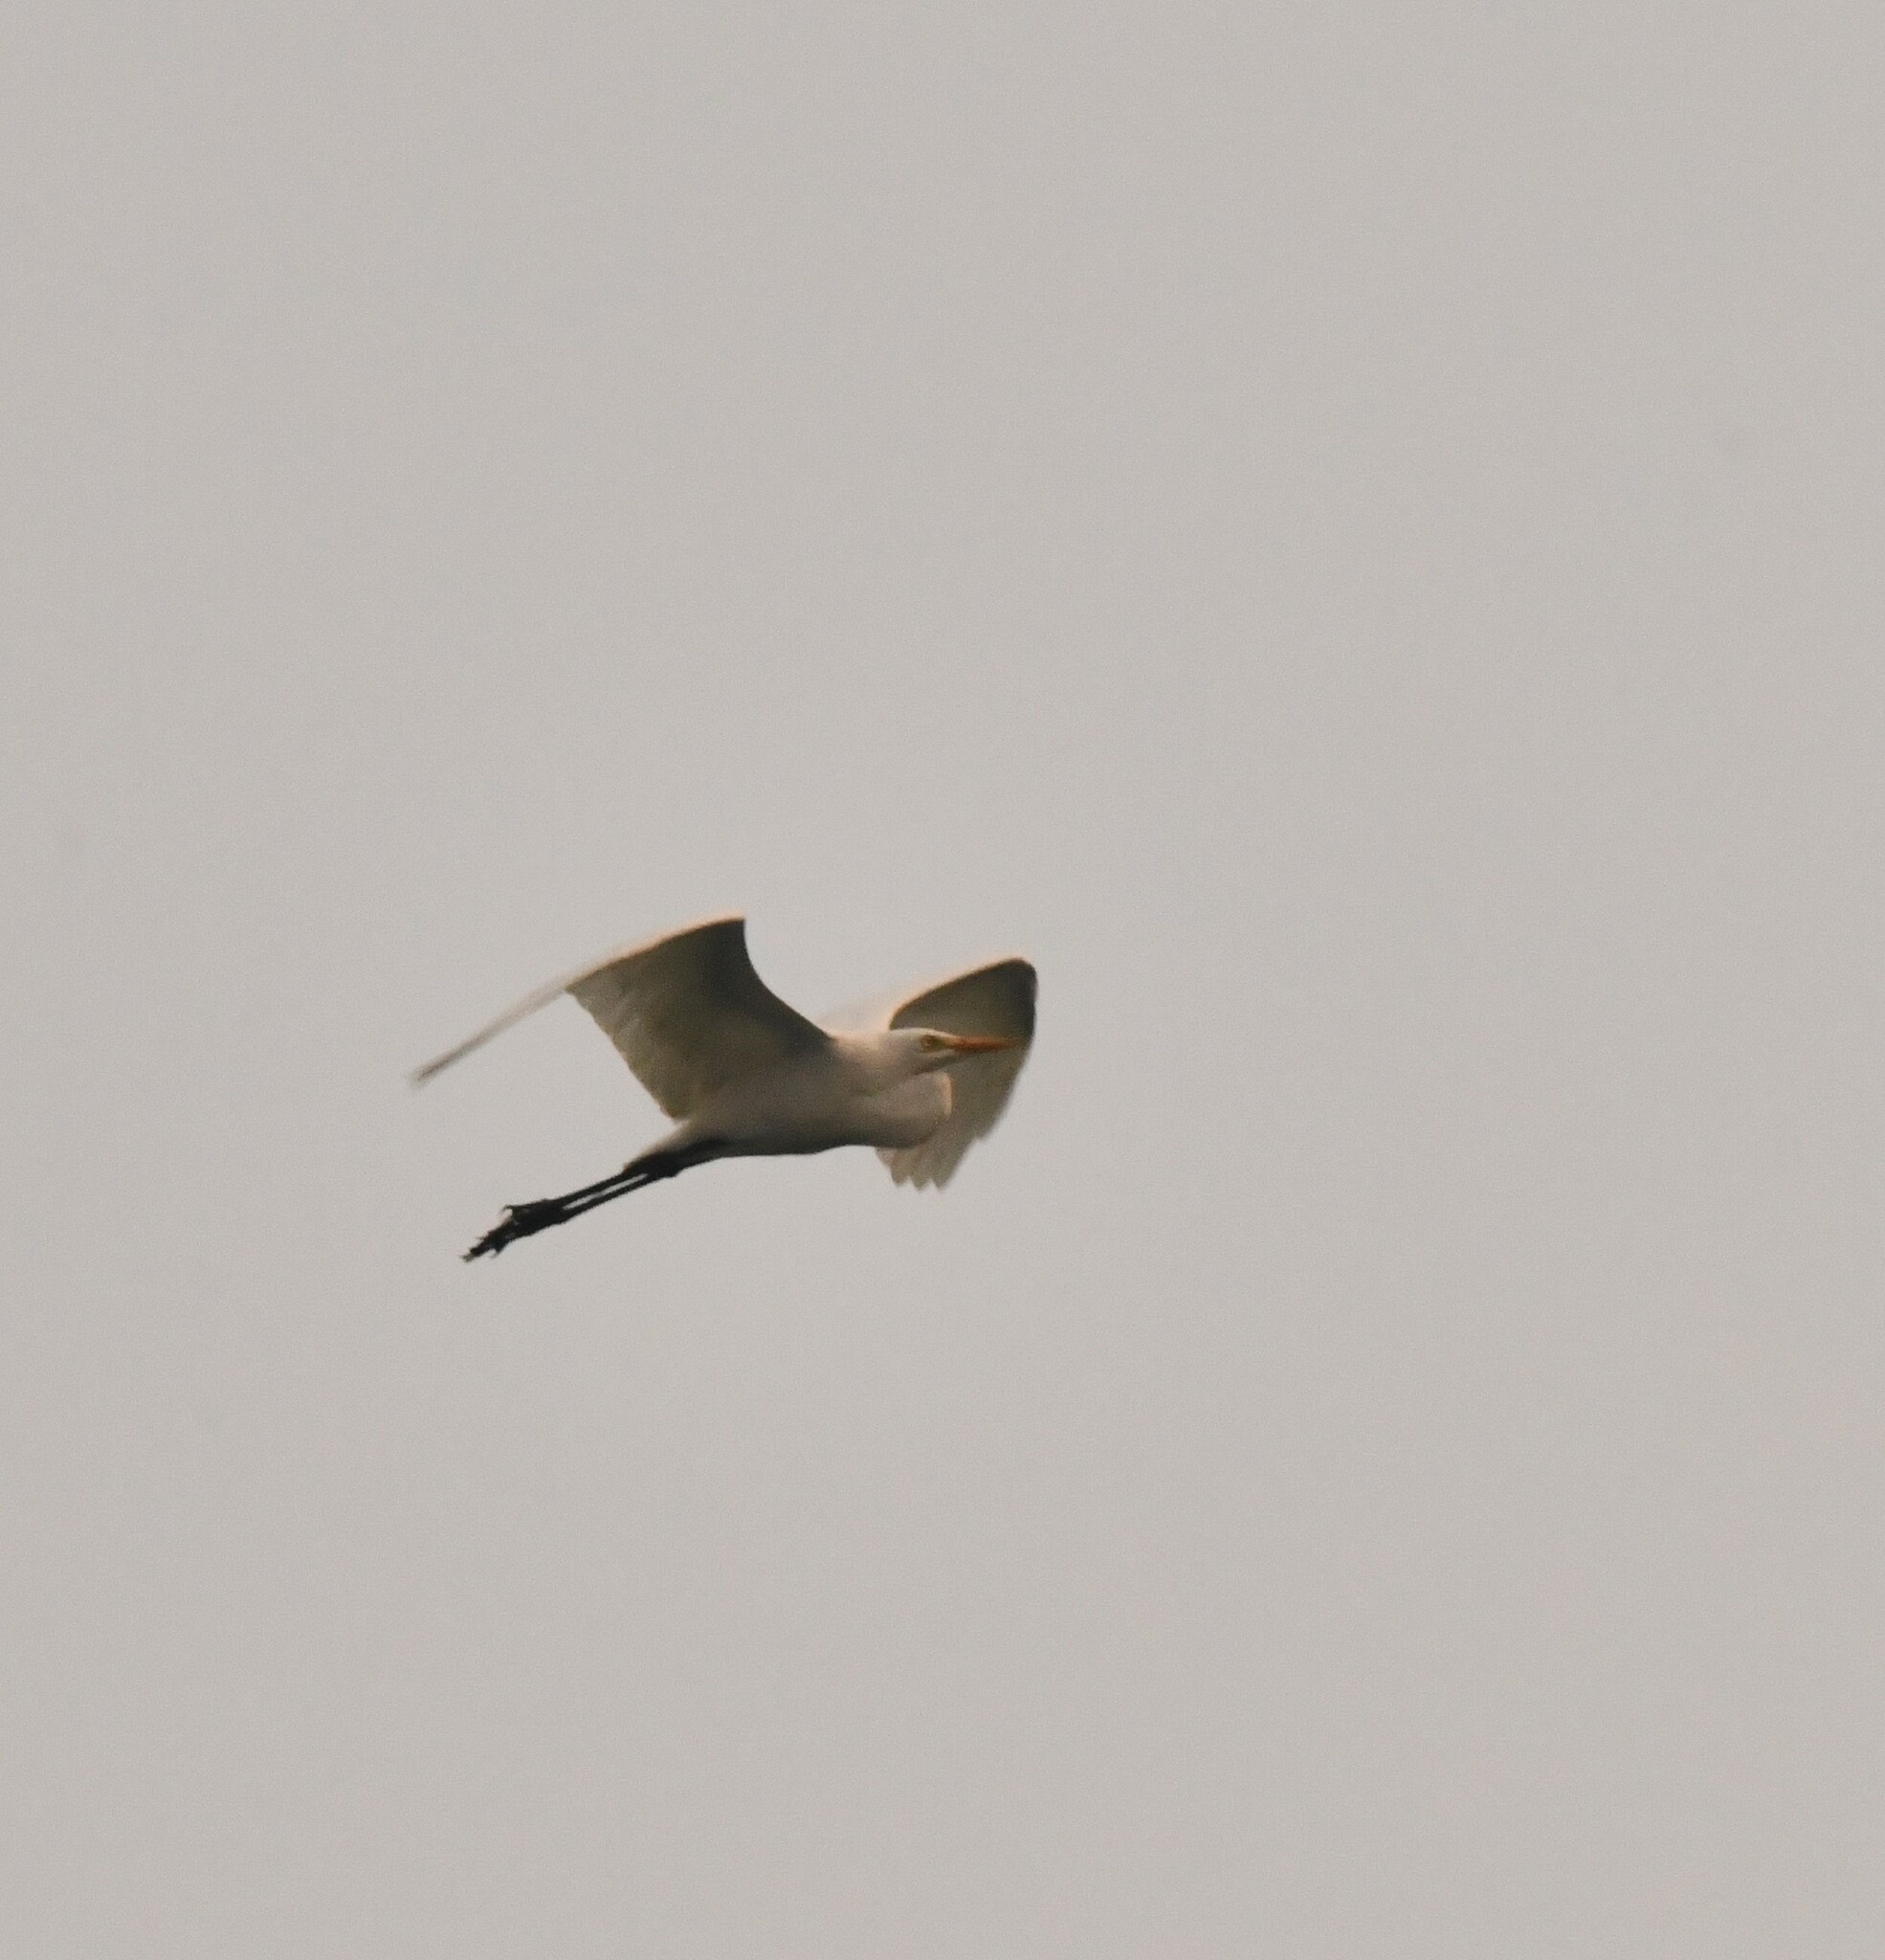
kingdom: Animalia
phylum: Chordata
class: Aves
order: Pelecaniformes
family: Ardeidae
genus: Egretta
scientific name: Egretta intermedia
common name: Intermediate egret
